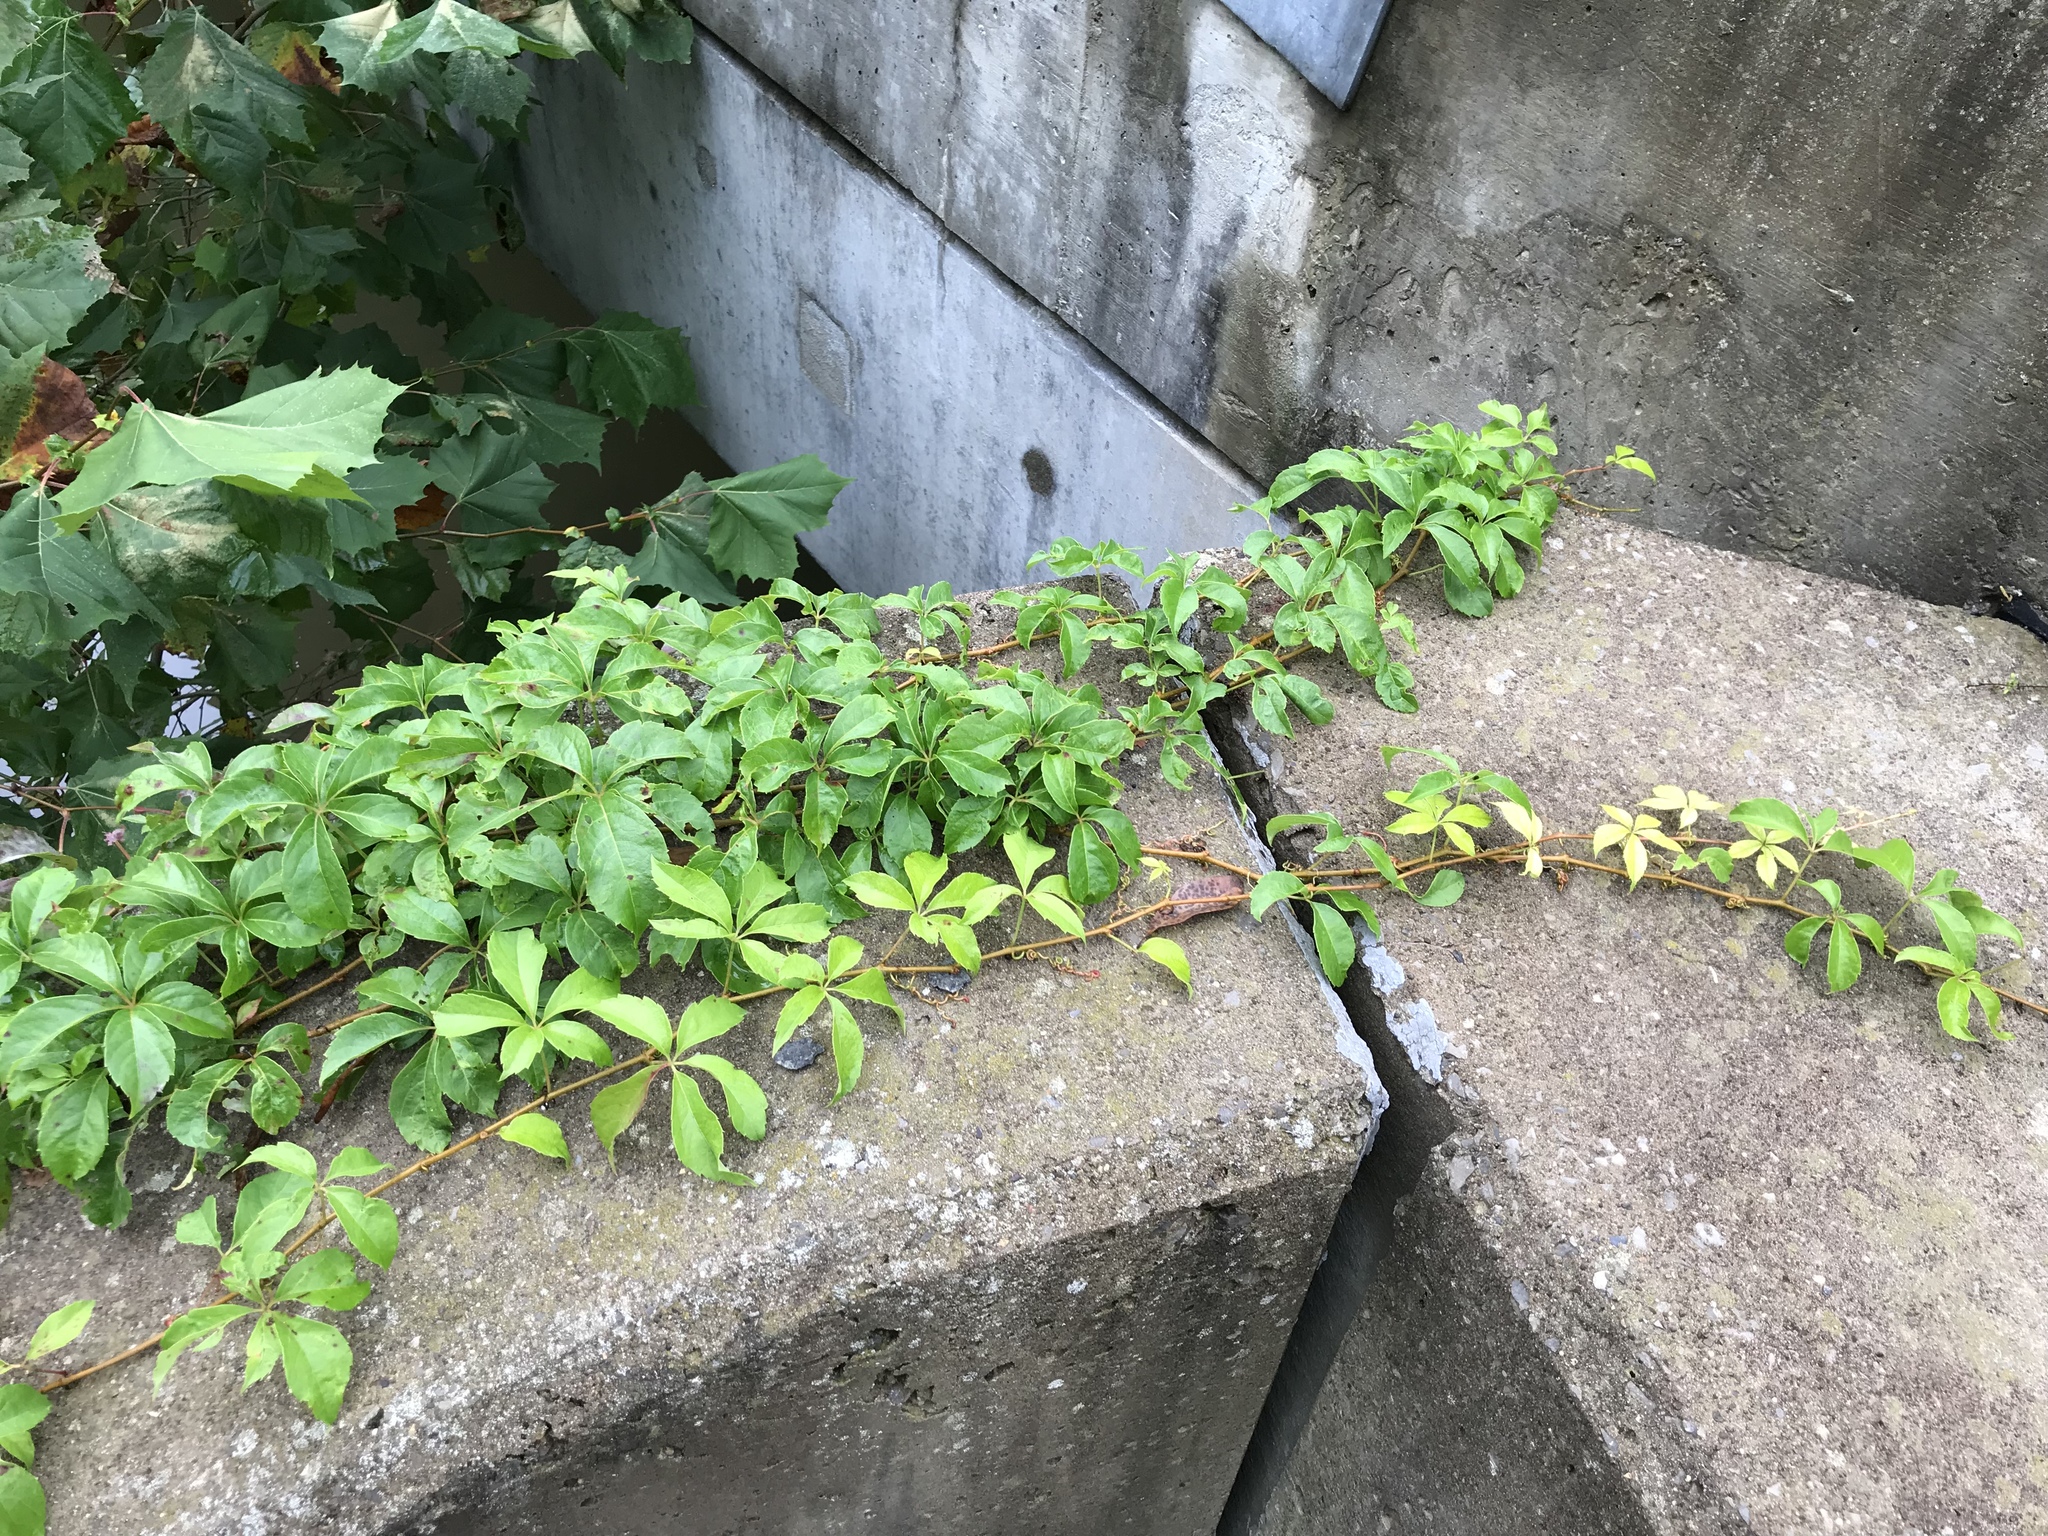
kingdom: Plantae
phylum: Tracheophyta
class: Magnoliopsida
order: Vitales
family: Vitaceae
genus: Parthenocissus
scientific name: Parthenocissus quinquefolia
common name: Virginia-creeper
